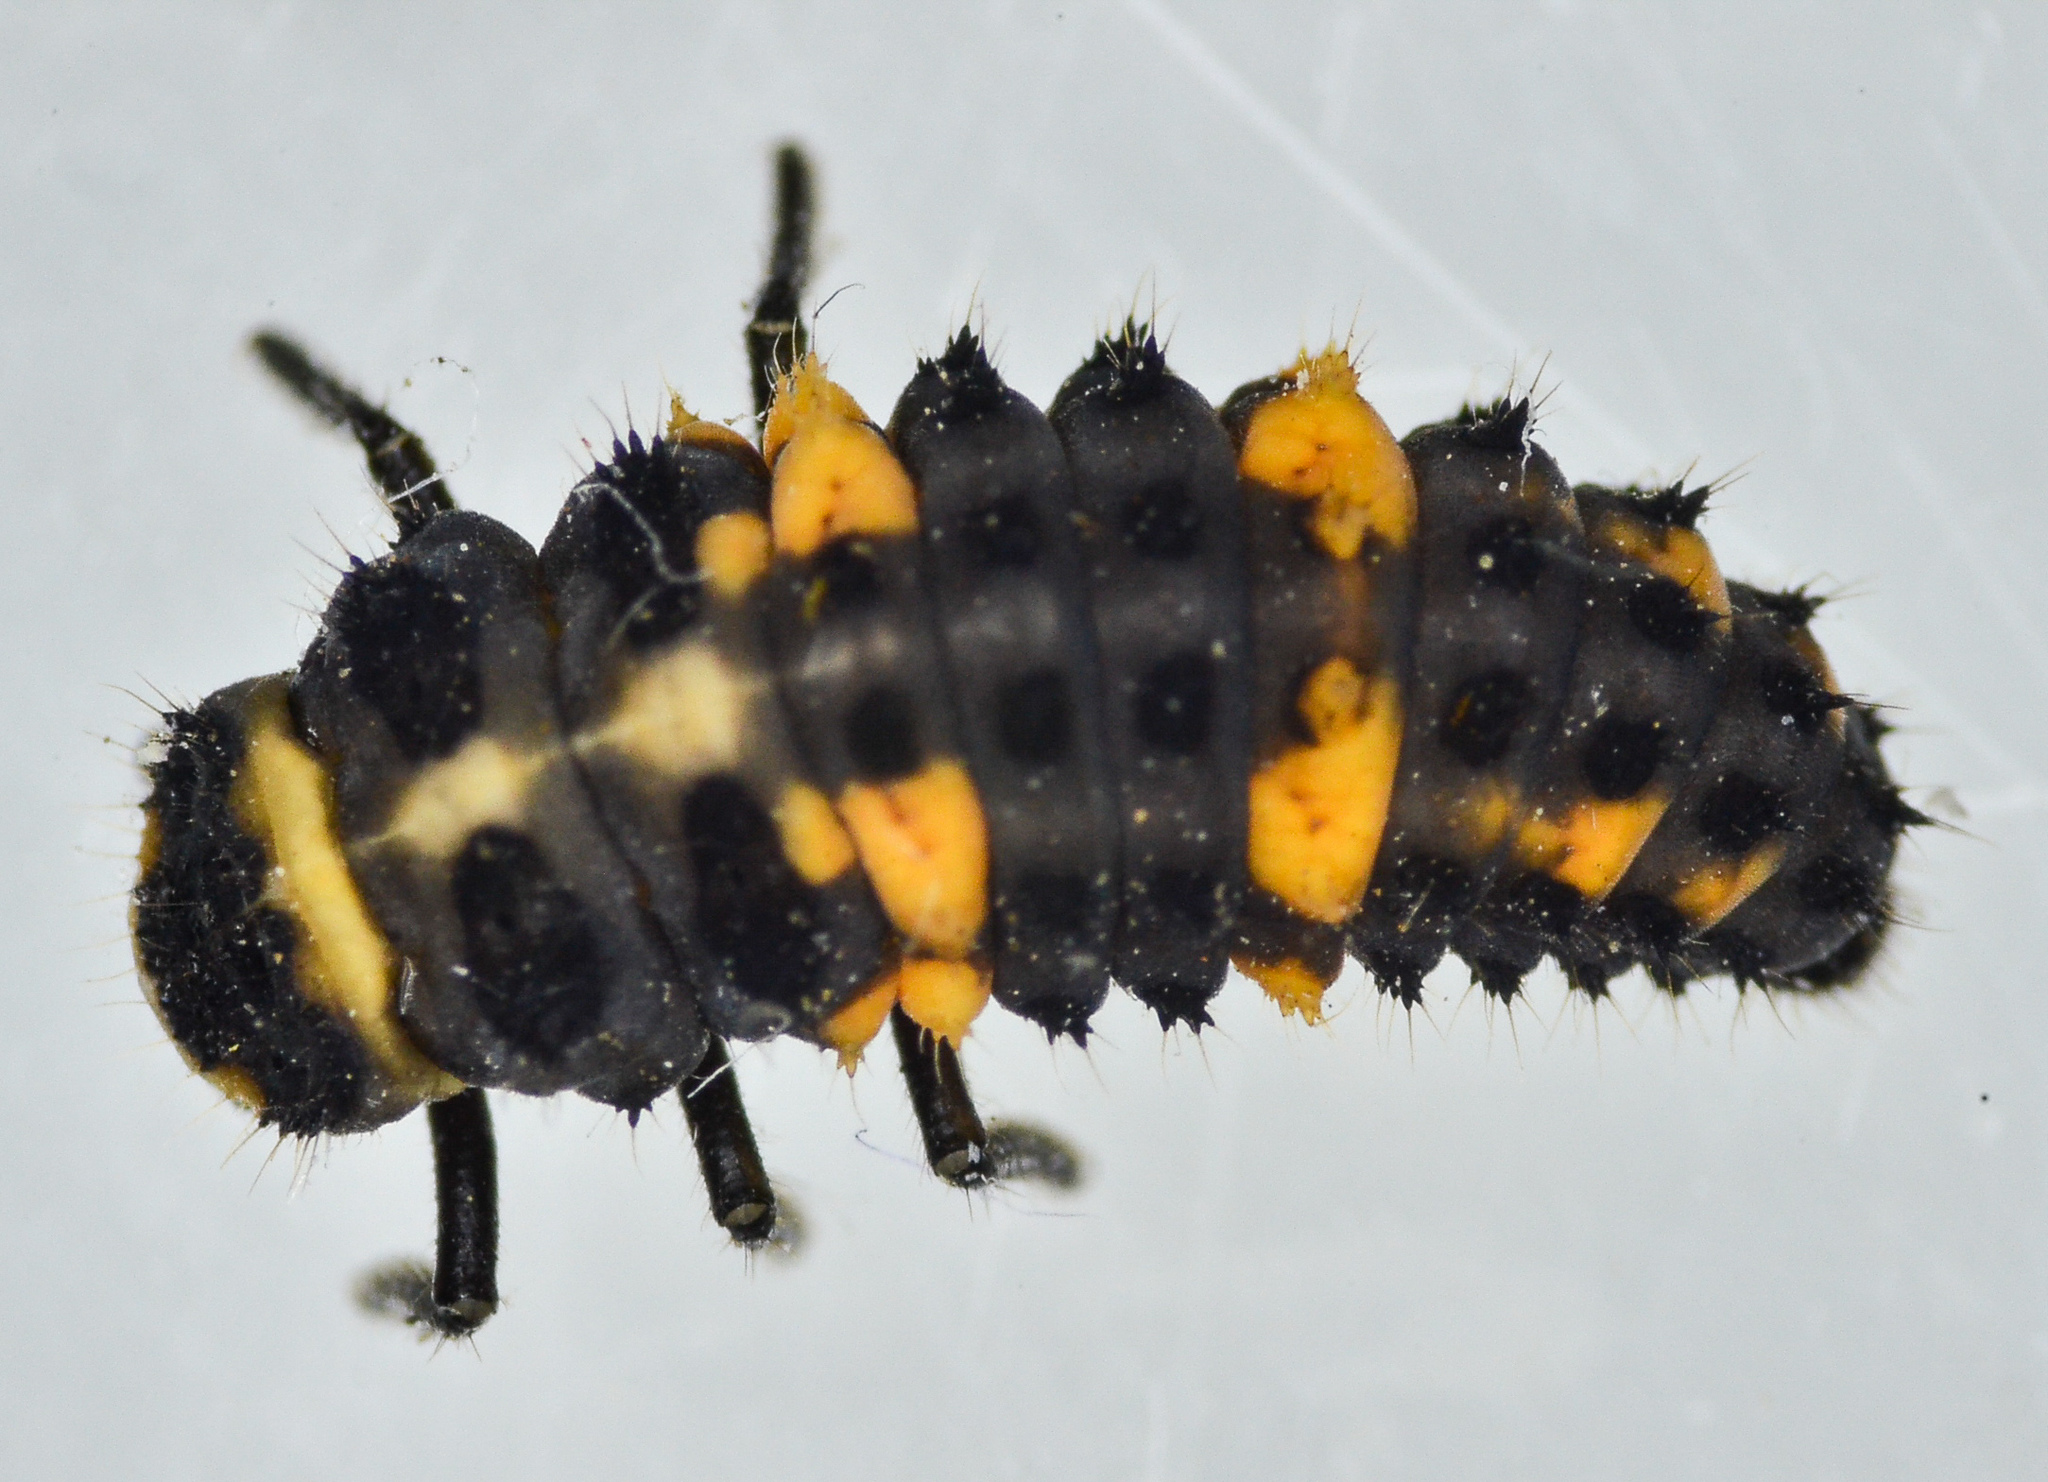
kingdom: Animalia
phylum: Arthropoda
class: Insecta
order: Coleoptera
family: Coccinellidae
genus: Hippodamia
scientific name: Hippodamia convergens
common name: Convergent lady beetle
